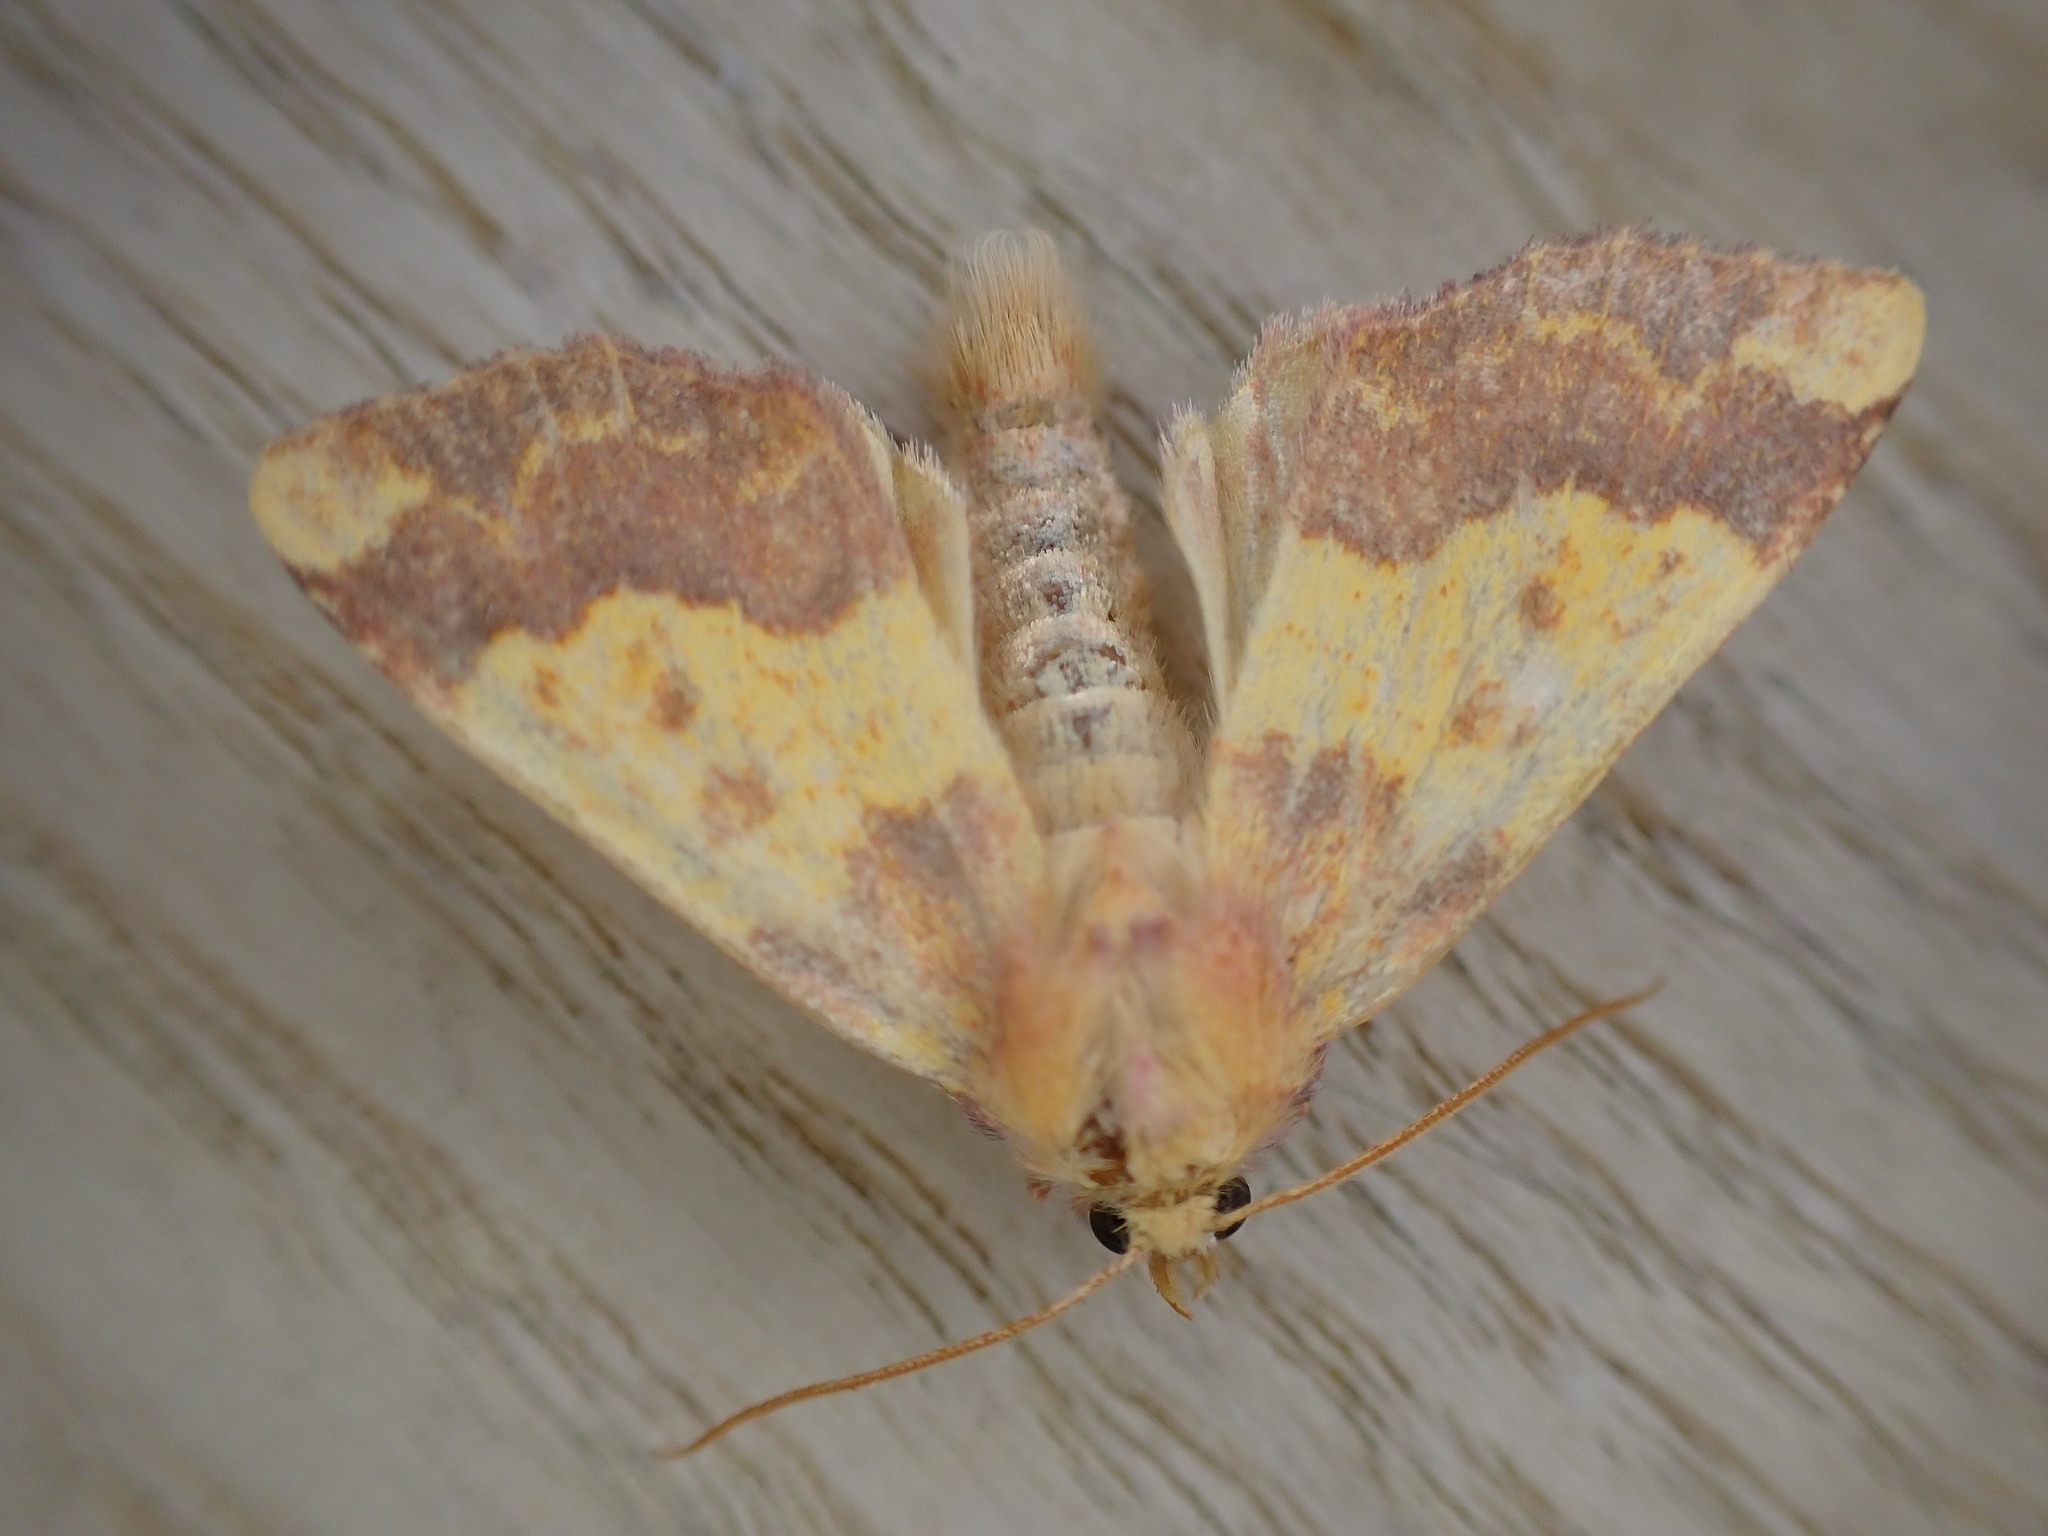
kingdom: Animalia
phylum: Arthropoda
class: Insecta
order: Lepidoptera
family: Noctuidae
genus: Tiliacea
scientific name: Tiliacea aurago
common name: Barred sallow
